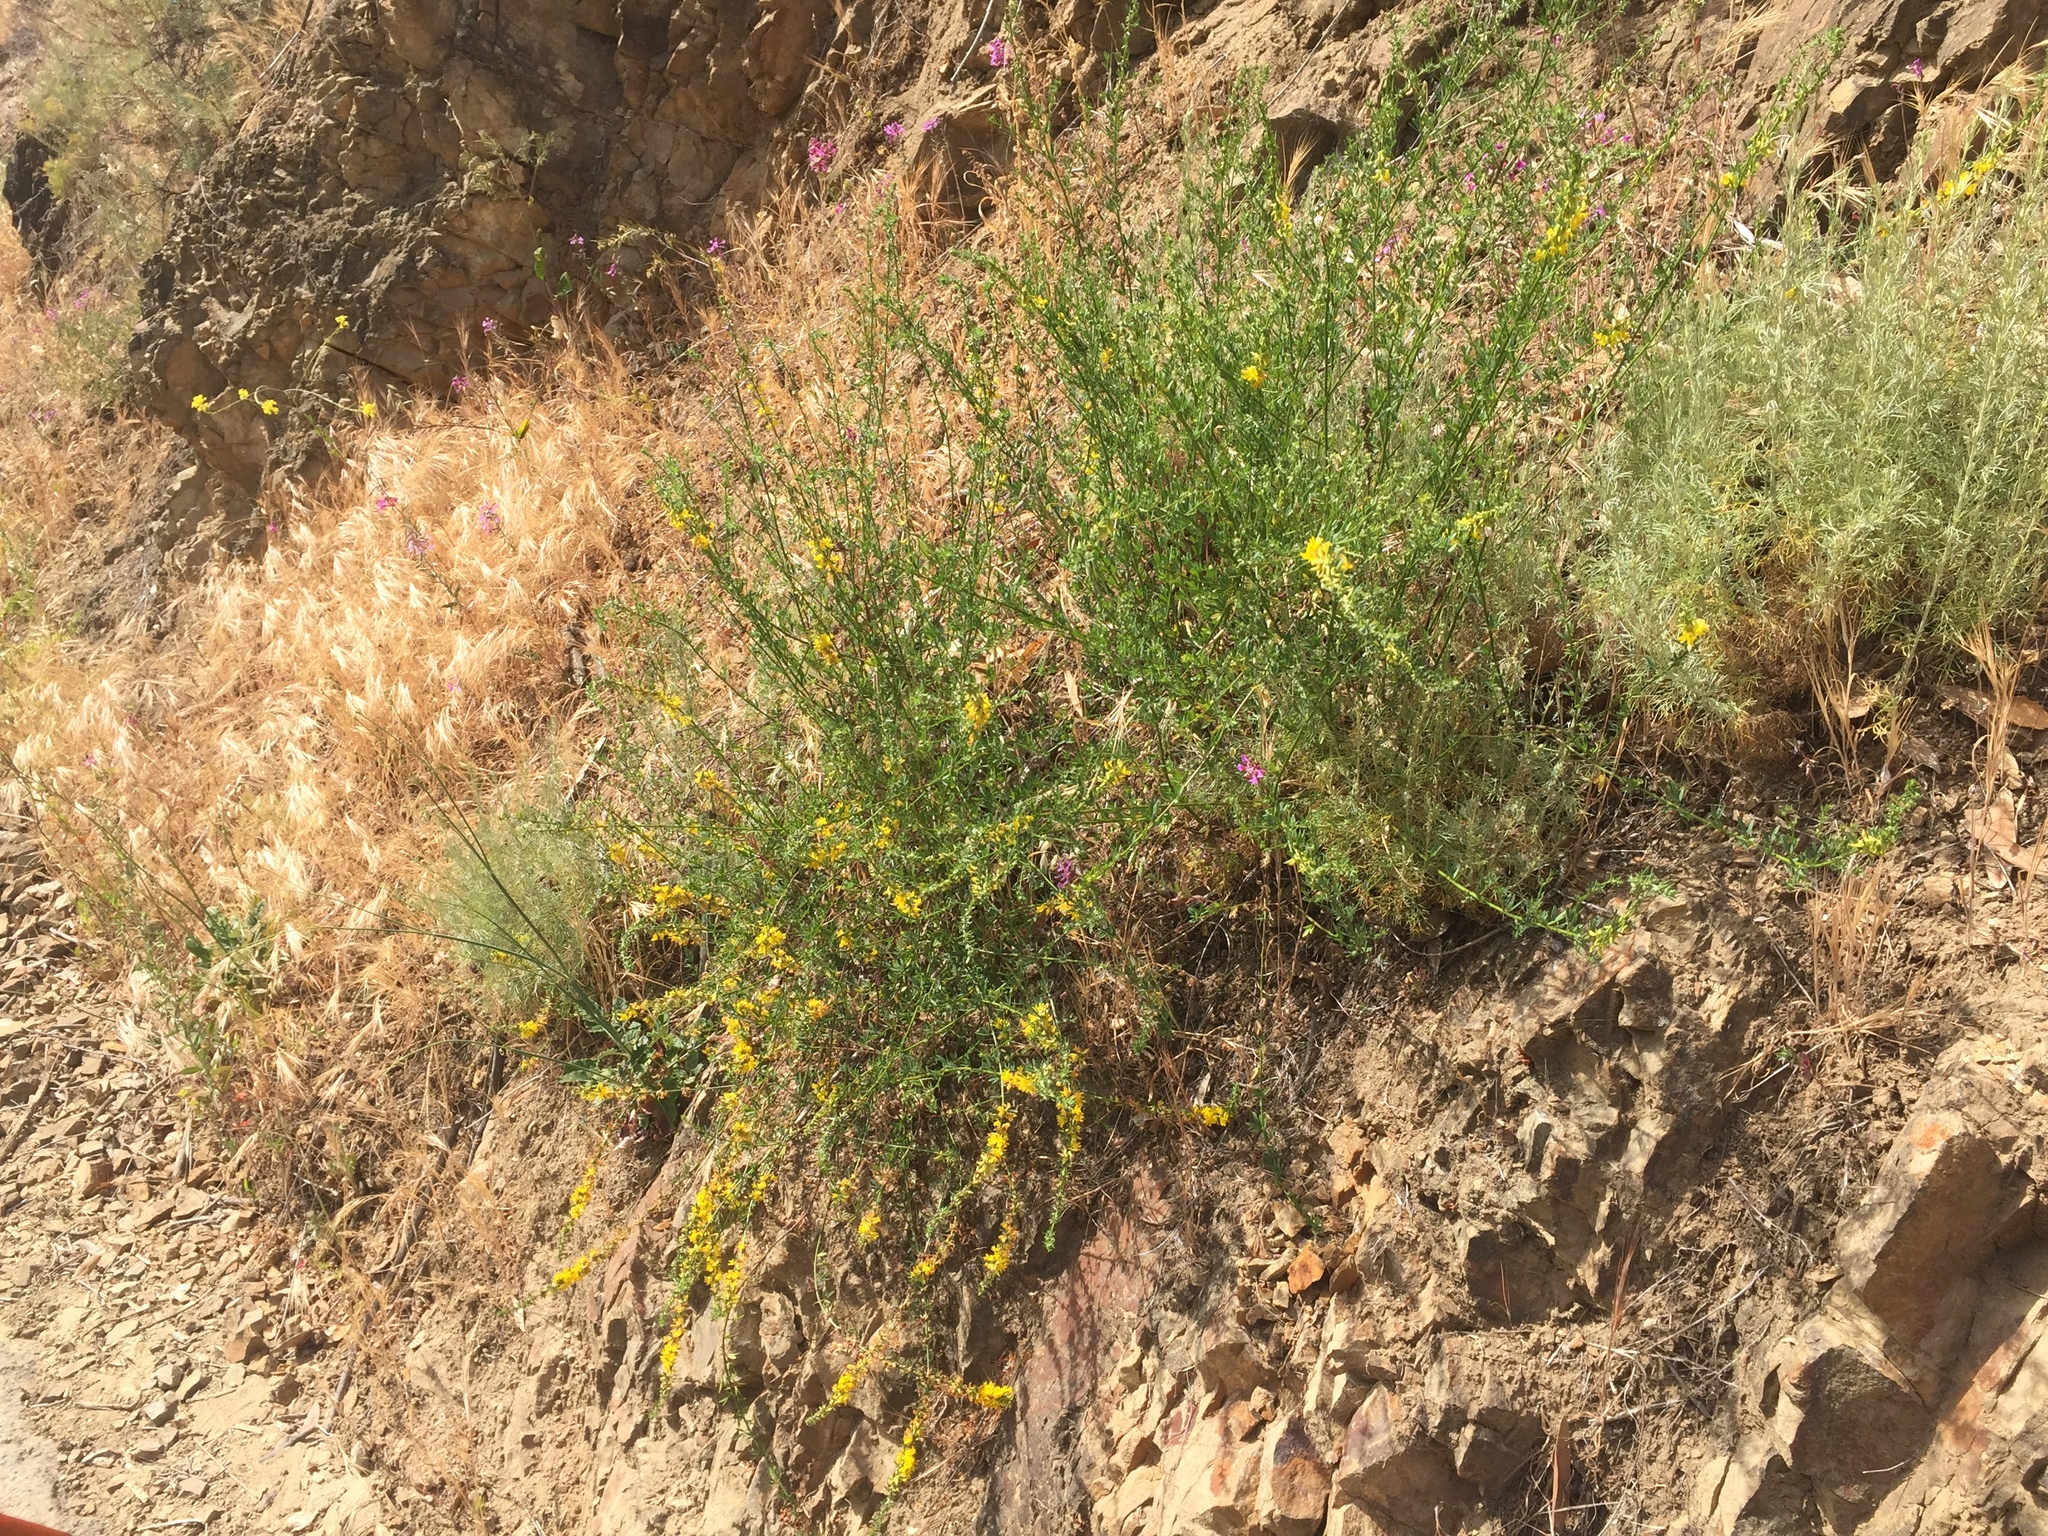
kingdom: Plantae
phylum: Tracheophyta
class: Magnoliopsida
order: Fabales
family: Fabaceae
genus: Acmispon
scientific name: Acmispon glaber
